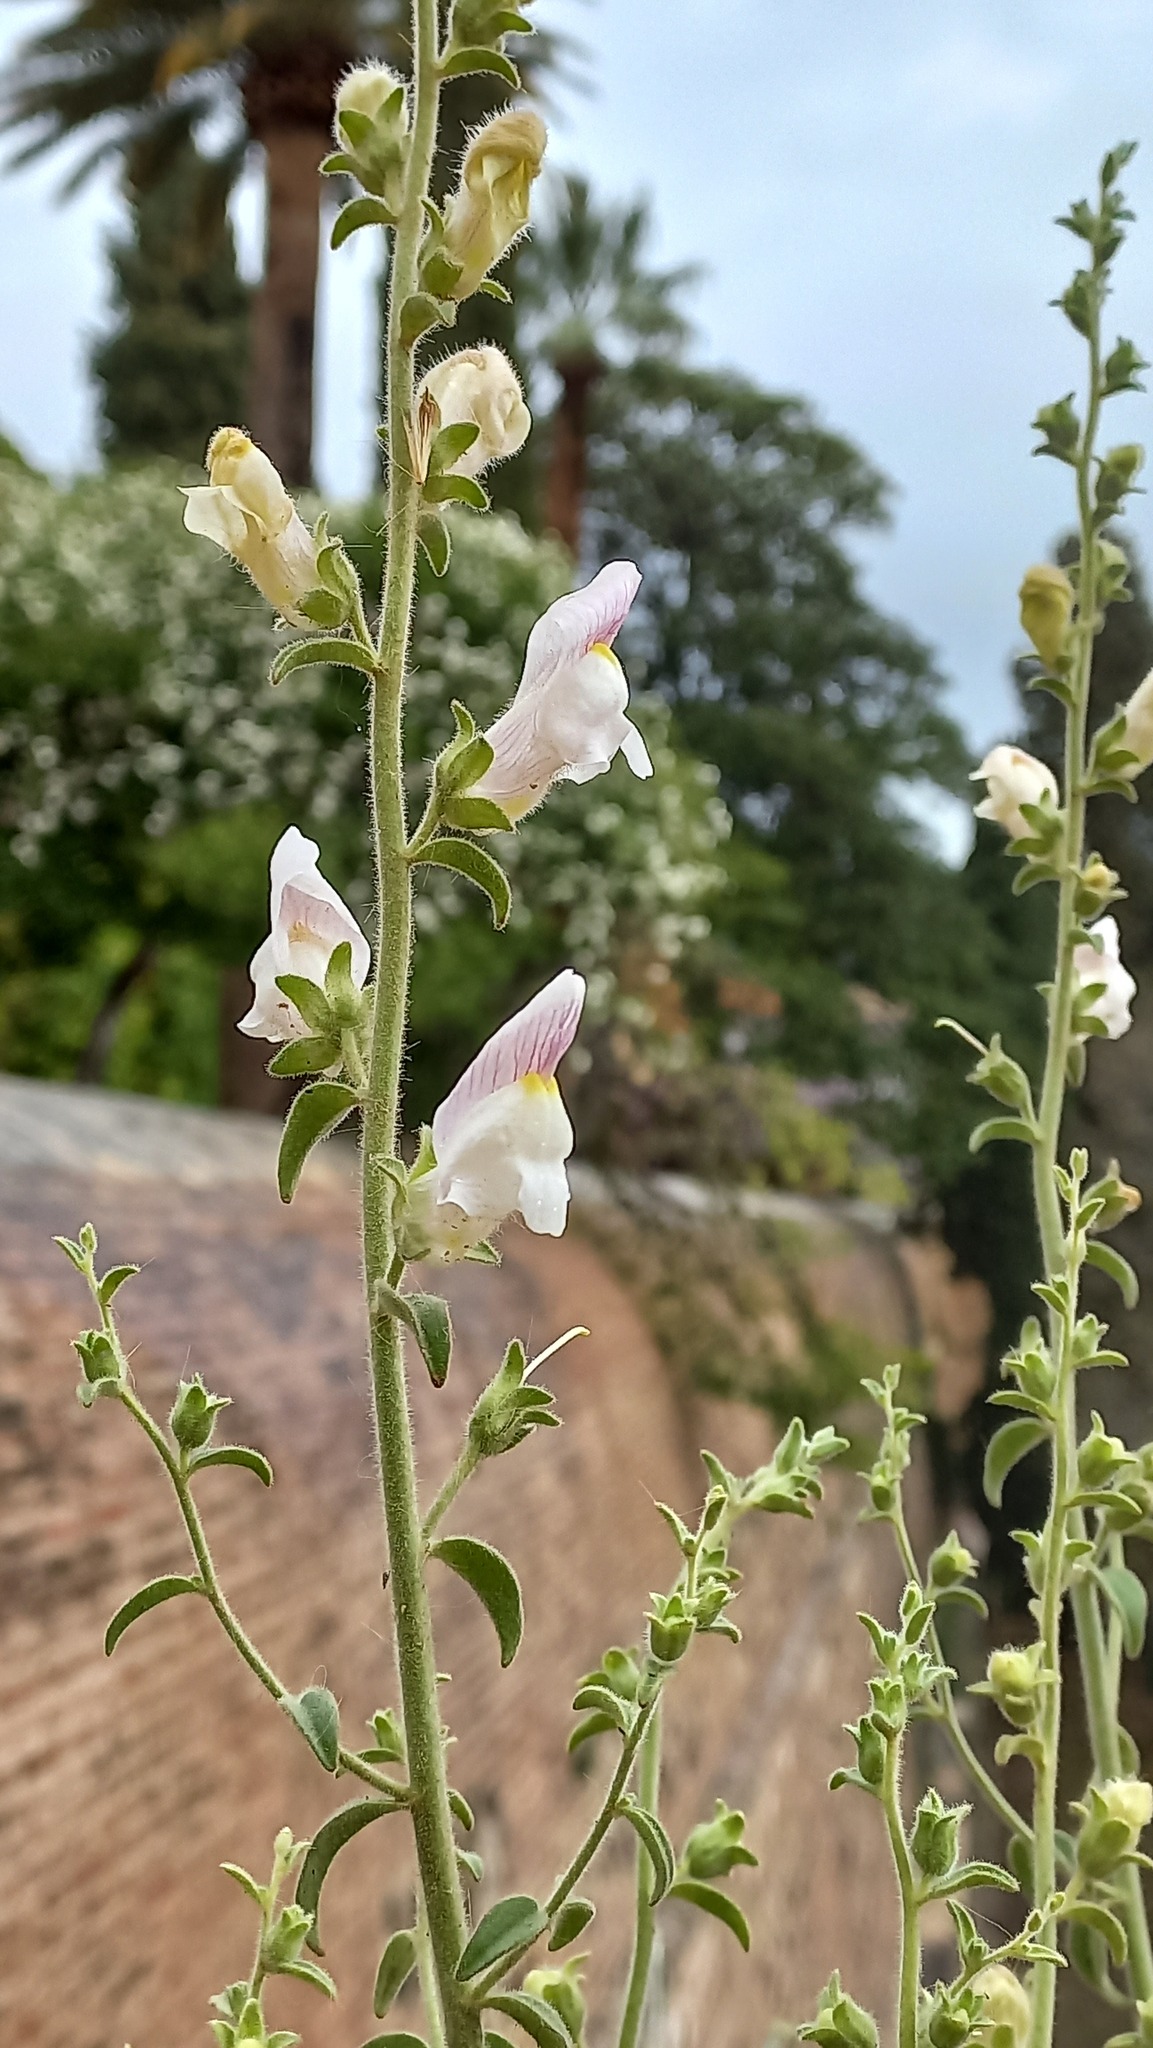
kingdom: Plantae
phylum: Tracheophyta
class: Magnoliopsida
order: Lamiales
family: Plantaginaceae
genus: Antirrhinum
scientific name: Antirrhinum hispanicum
